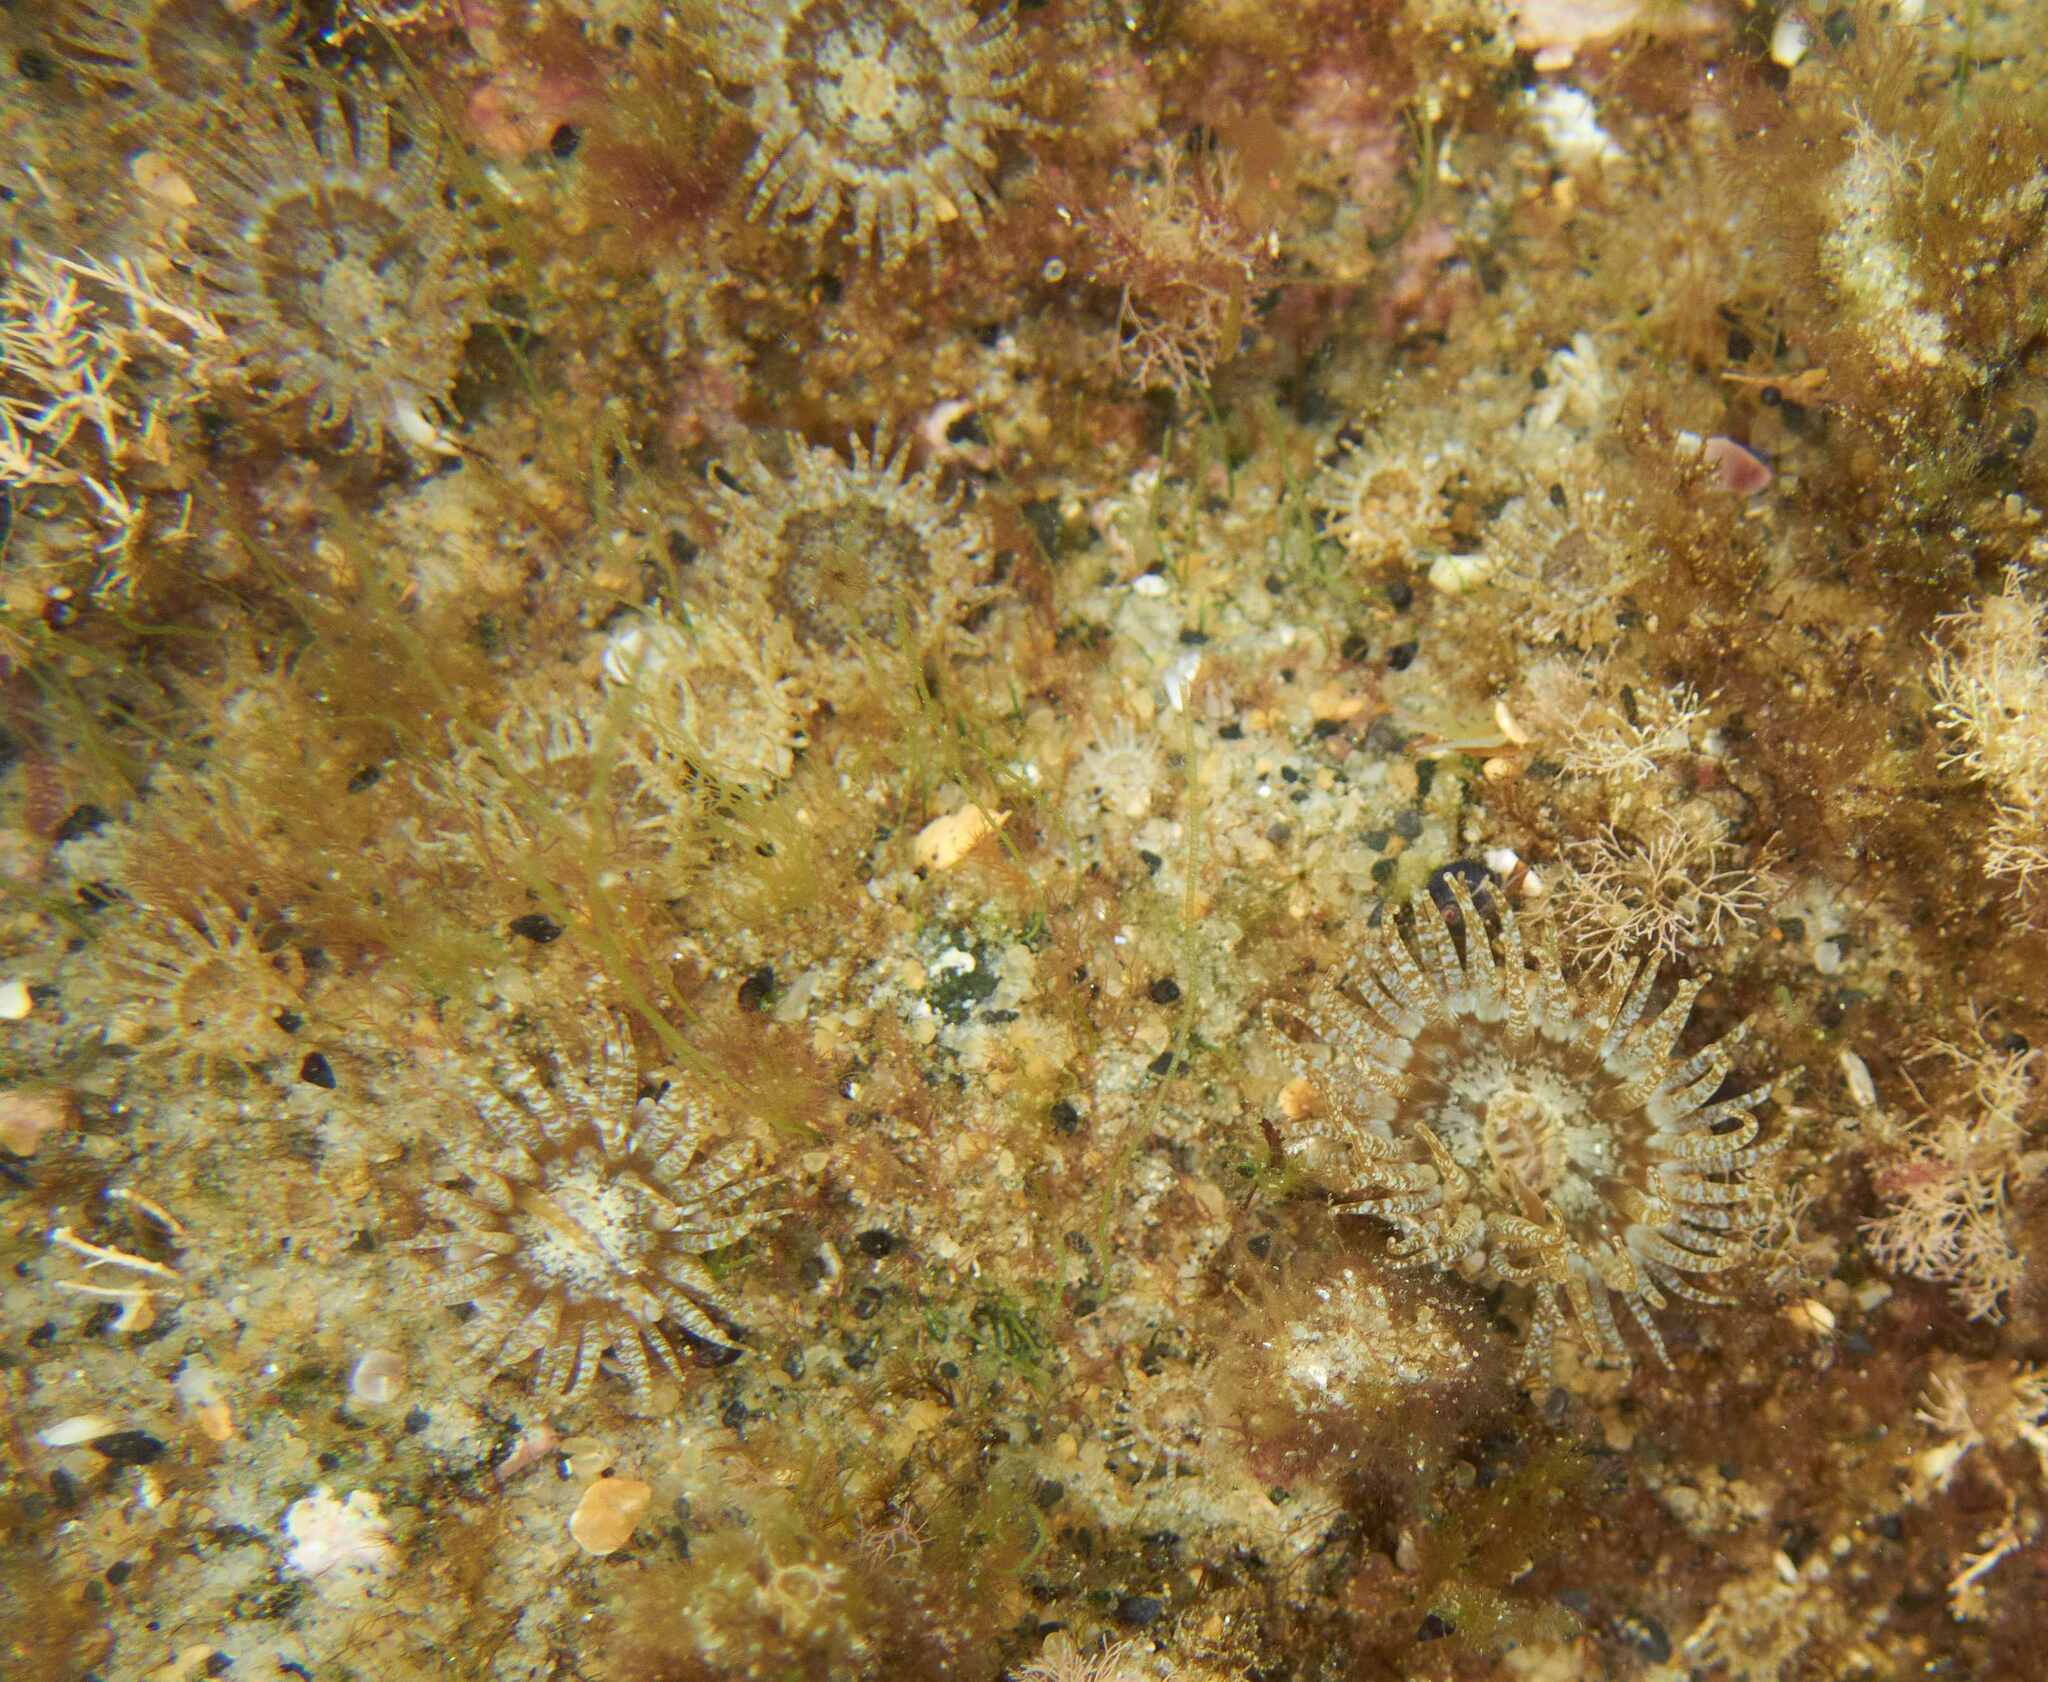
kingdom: Animalia
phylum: Cnidaria
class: Anthozoa
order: Actiniaria
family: Actiniidae
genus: Anthopleura
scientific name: Anthopleura hermaphroditica
